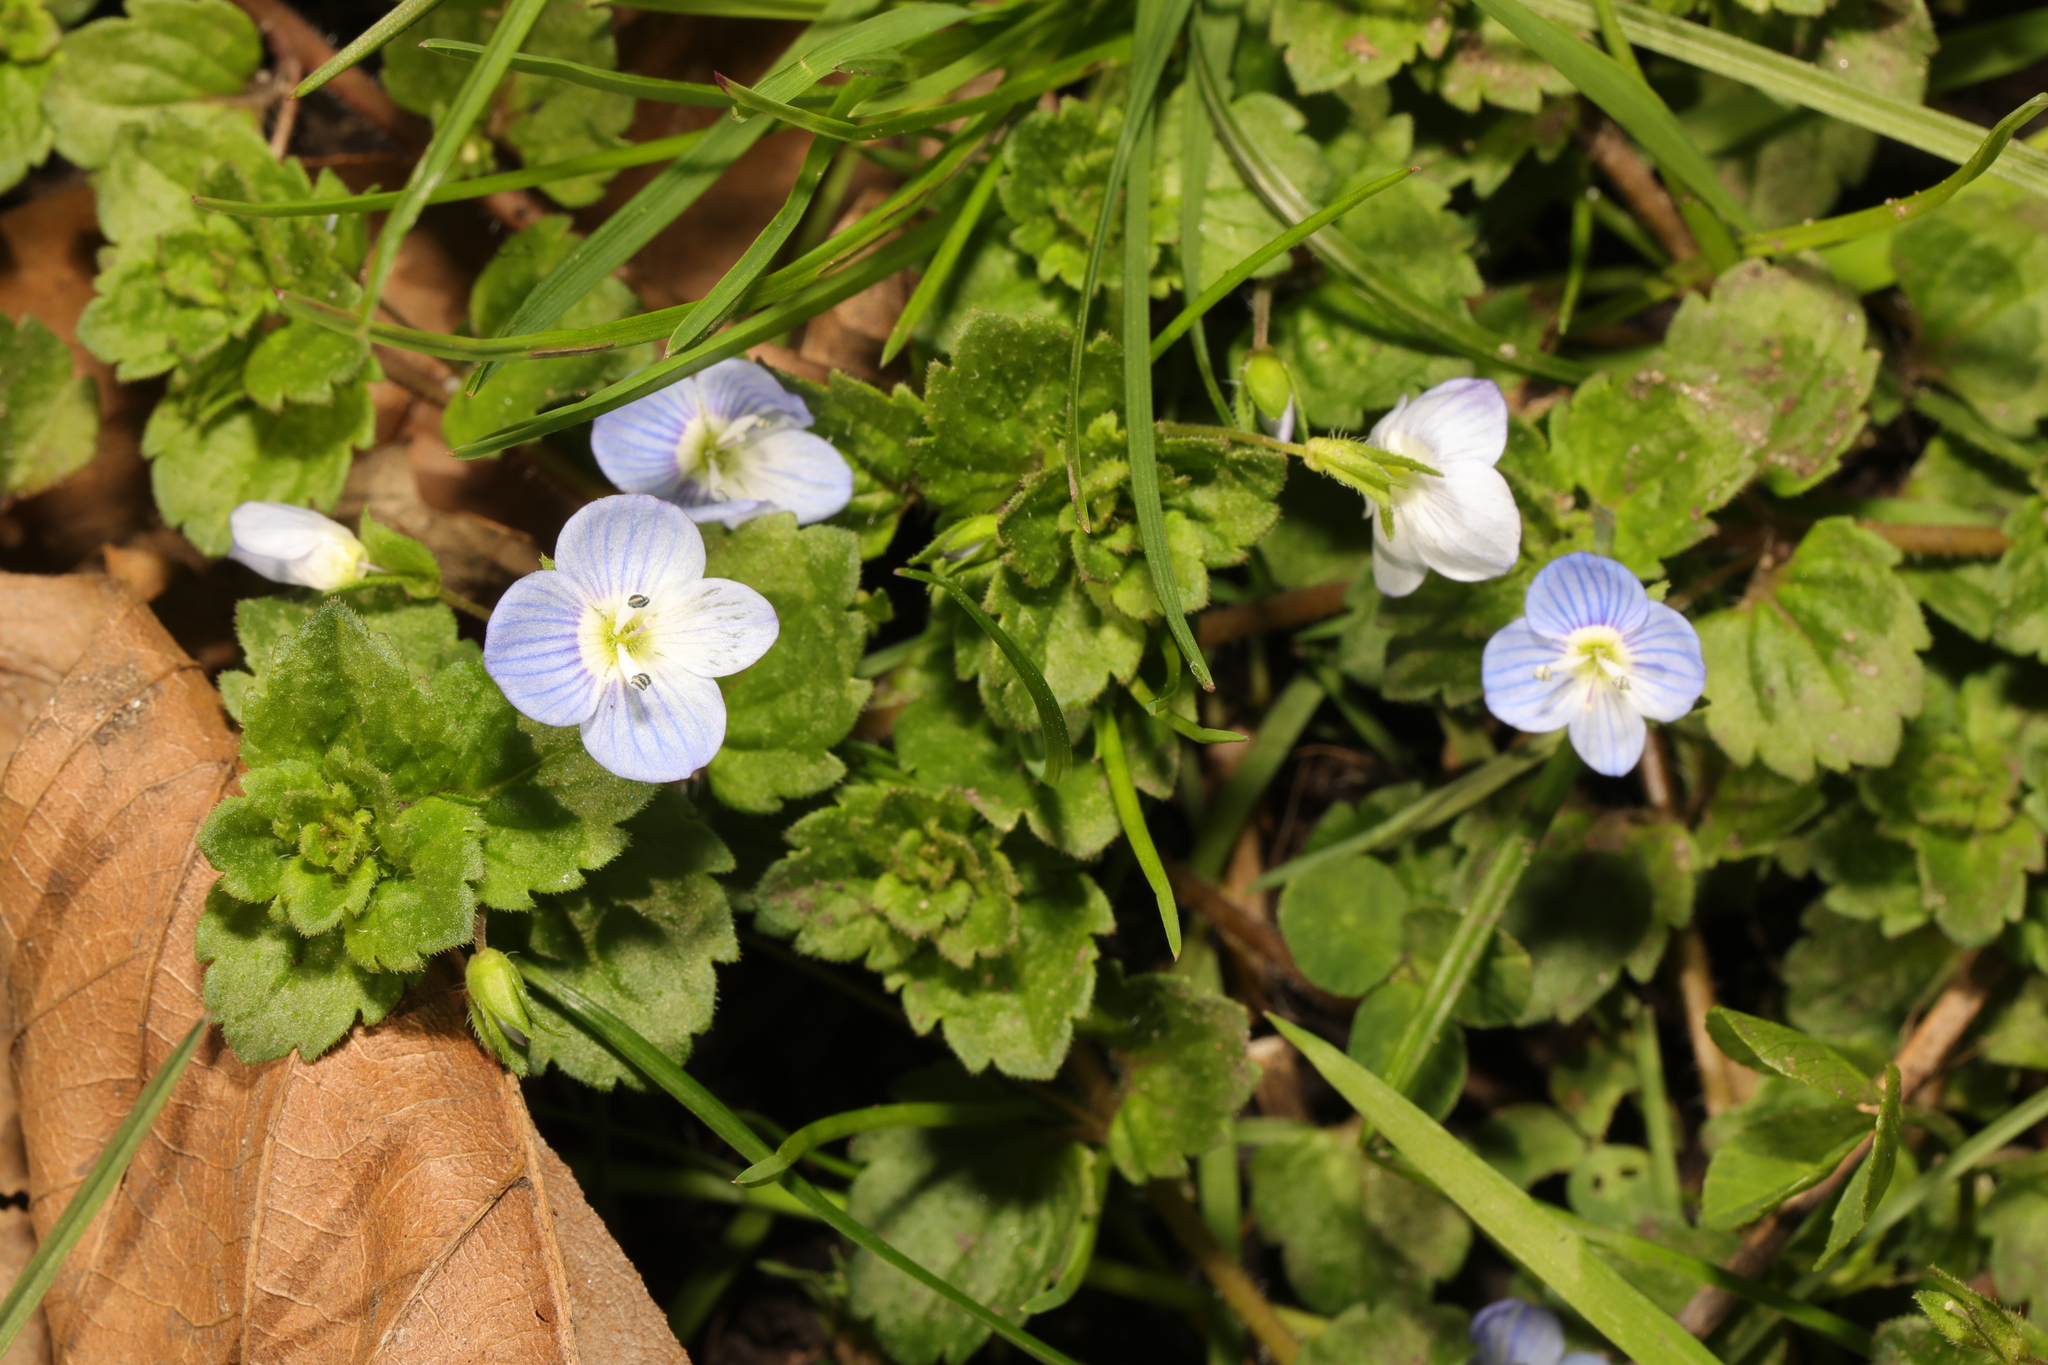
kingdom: Plantae
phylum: Tracheophyta
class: Magnoliopsida
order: Lamiales
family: Plantaginaceae
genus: Veronica
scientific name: Veronica persica
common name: Common field-speedwell
